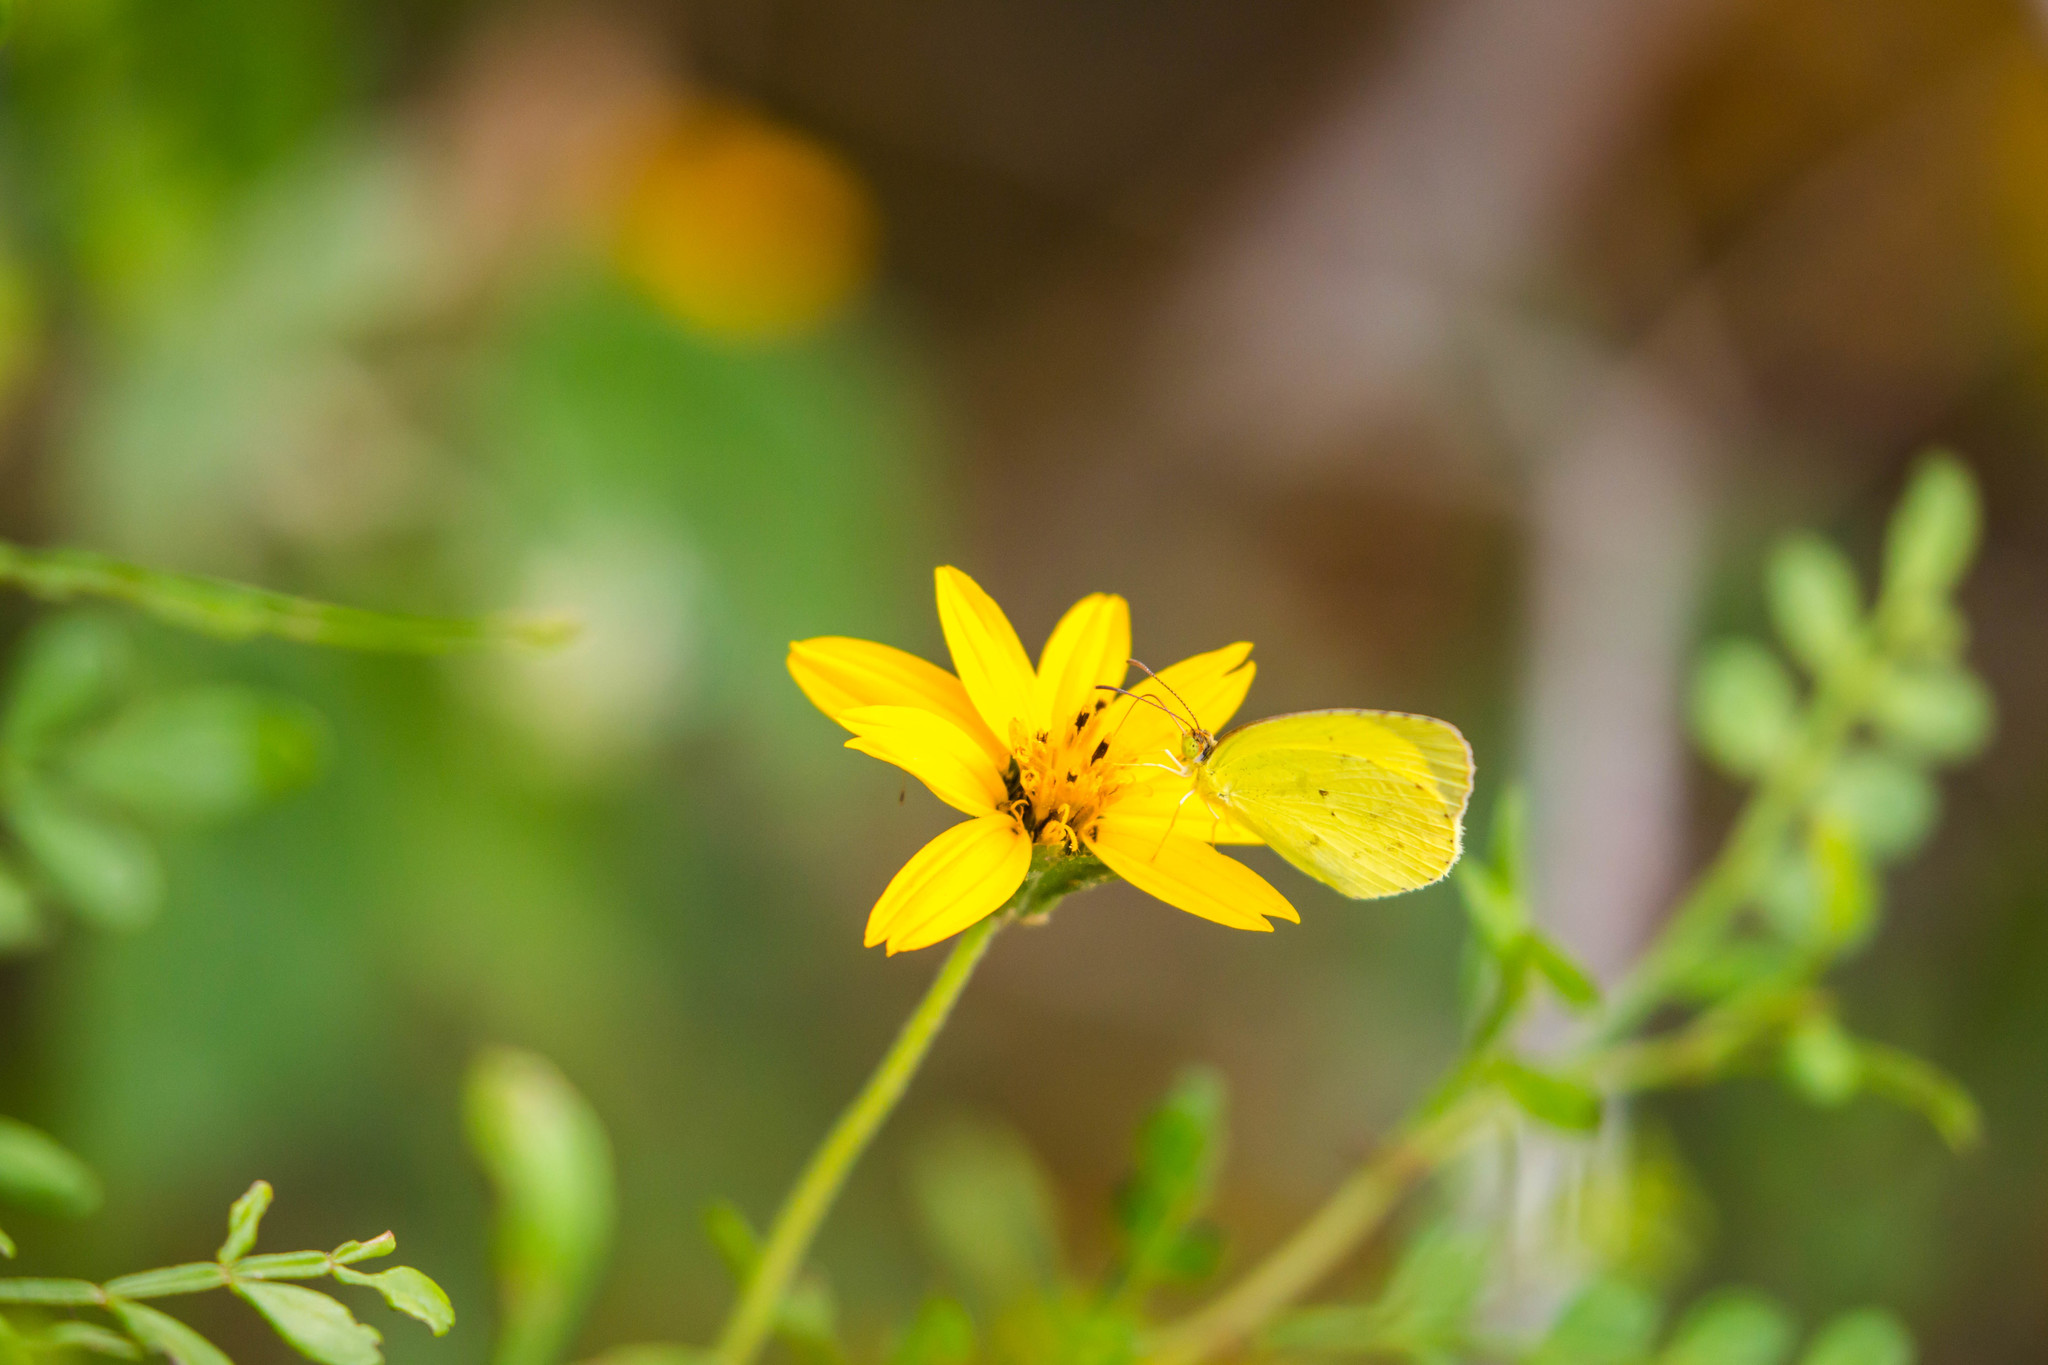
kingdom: Animalia
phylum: Arthropoda
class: Insecta
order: Lepidoptera
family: Pieridae
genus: Pyrisitia
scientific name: Pyrisitia lisa
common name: Little yellow
